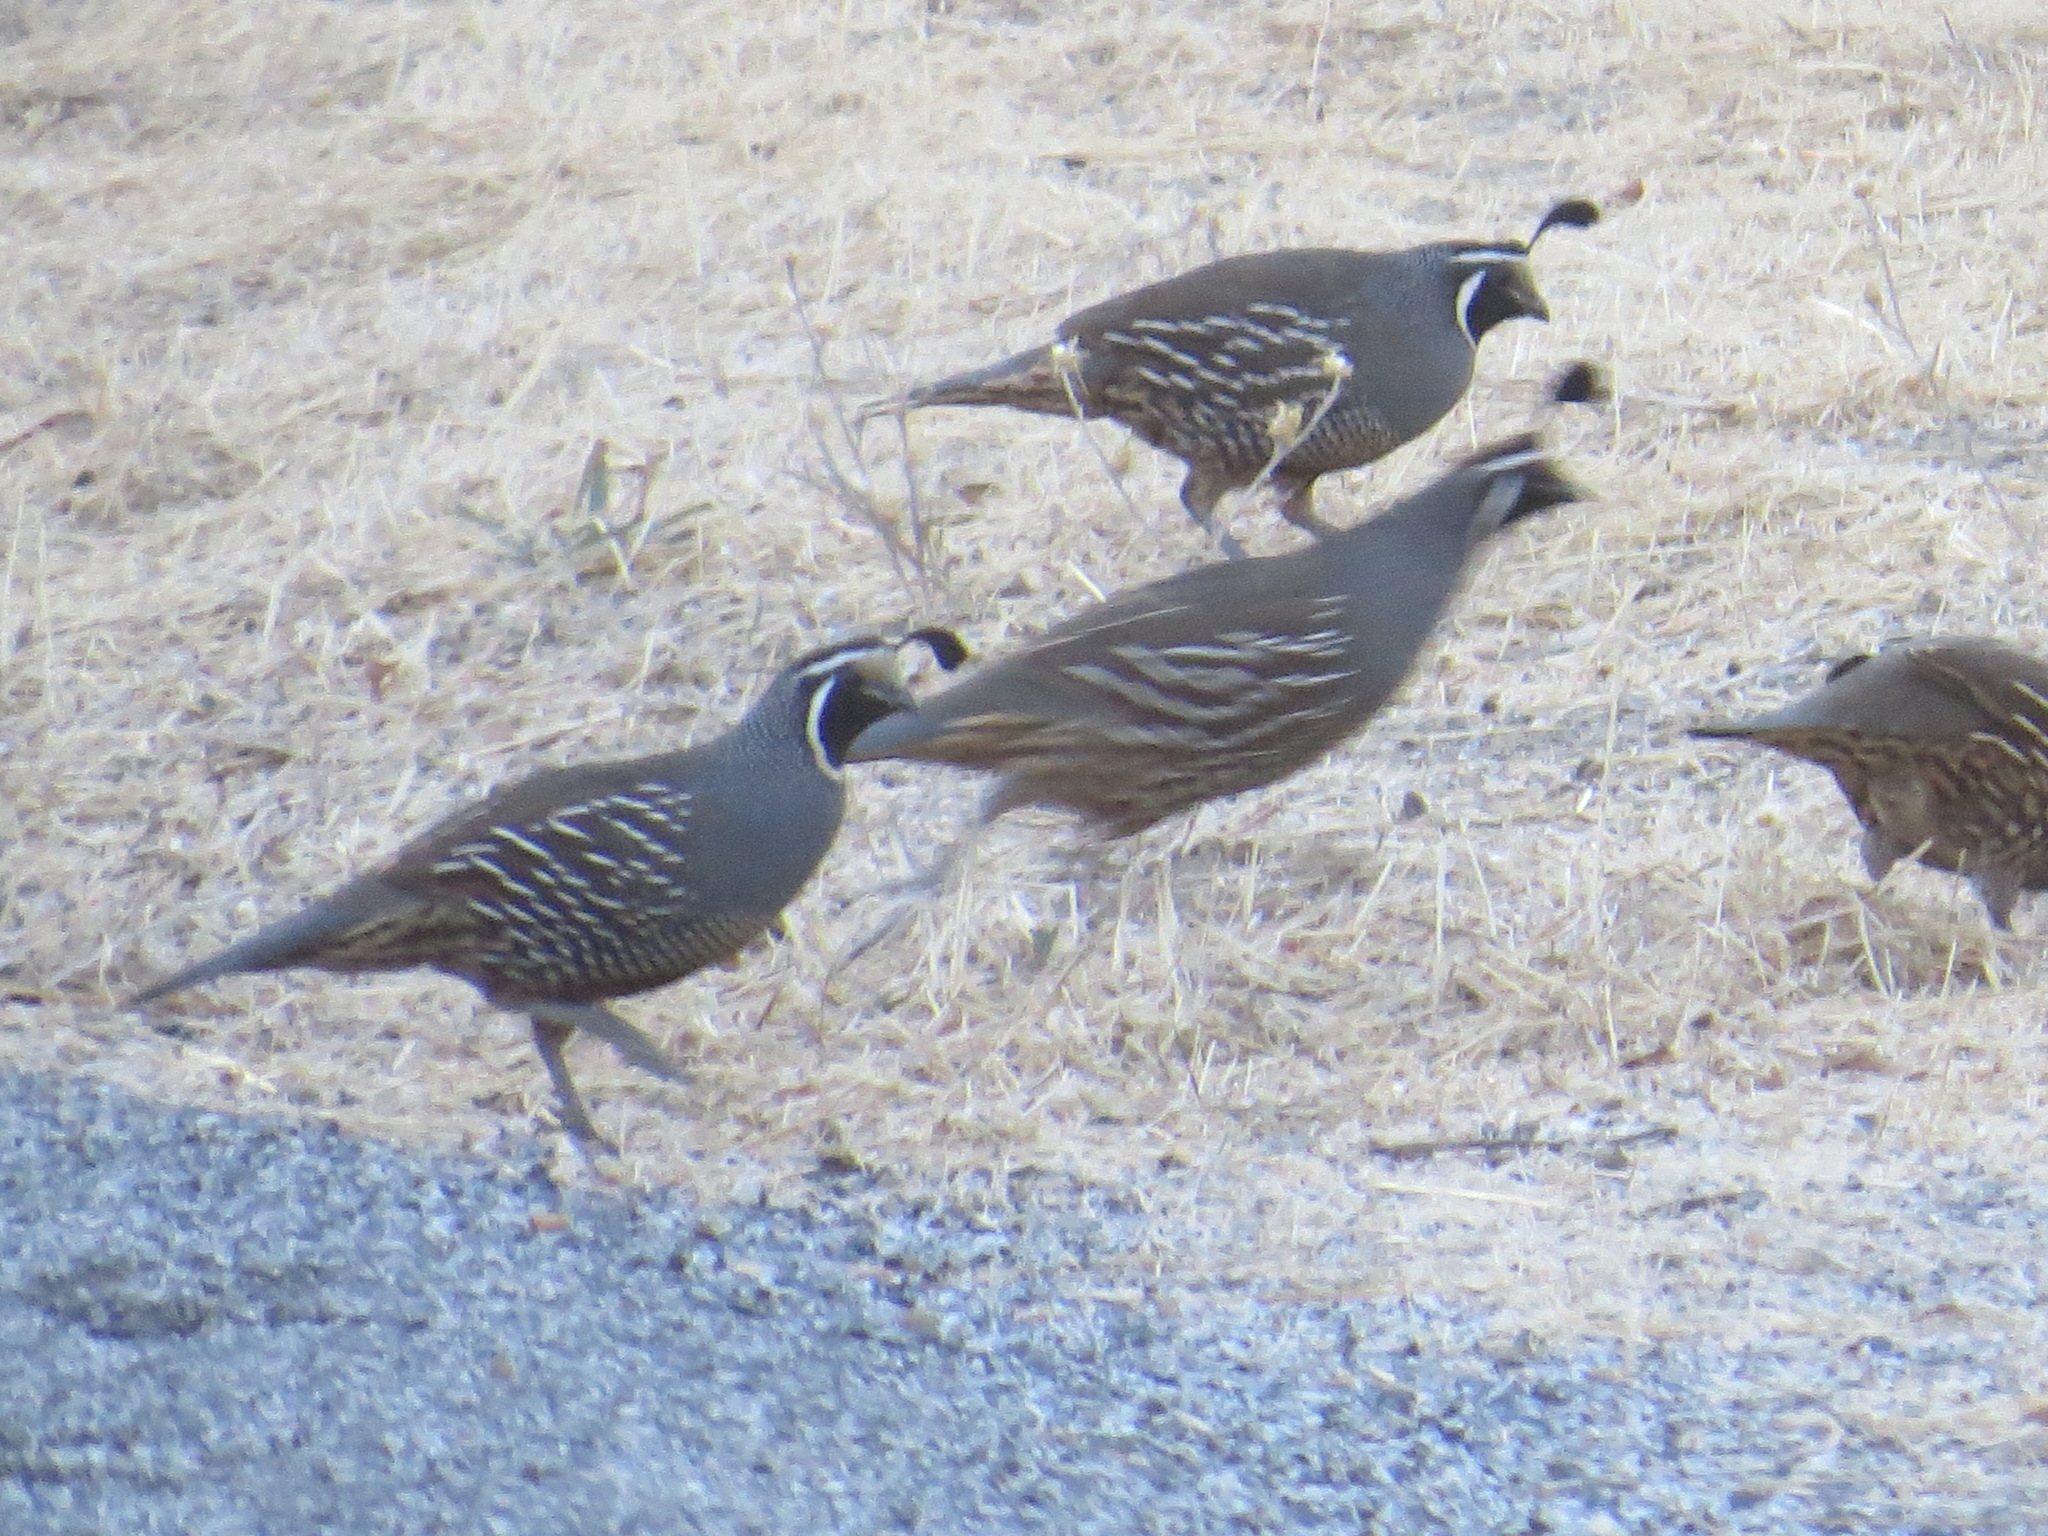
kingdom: Animalia
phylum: Chordata
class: Aves
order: Galliformes
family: Odontophoridae
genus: Callipepla
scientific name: Callipepla californica
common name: California quail
